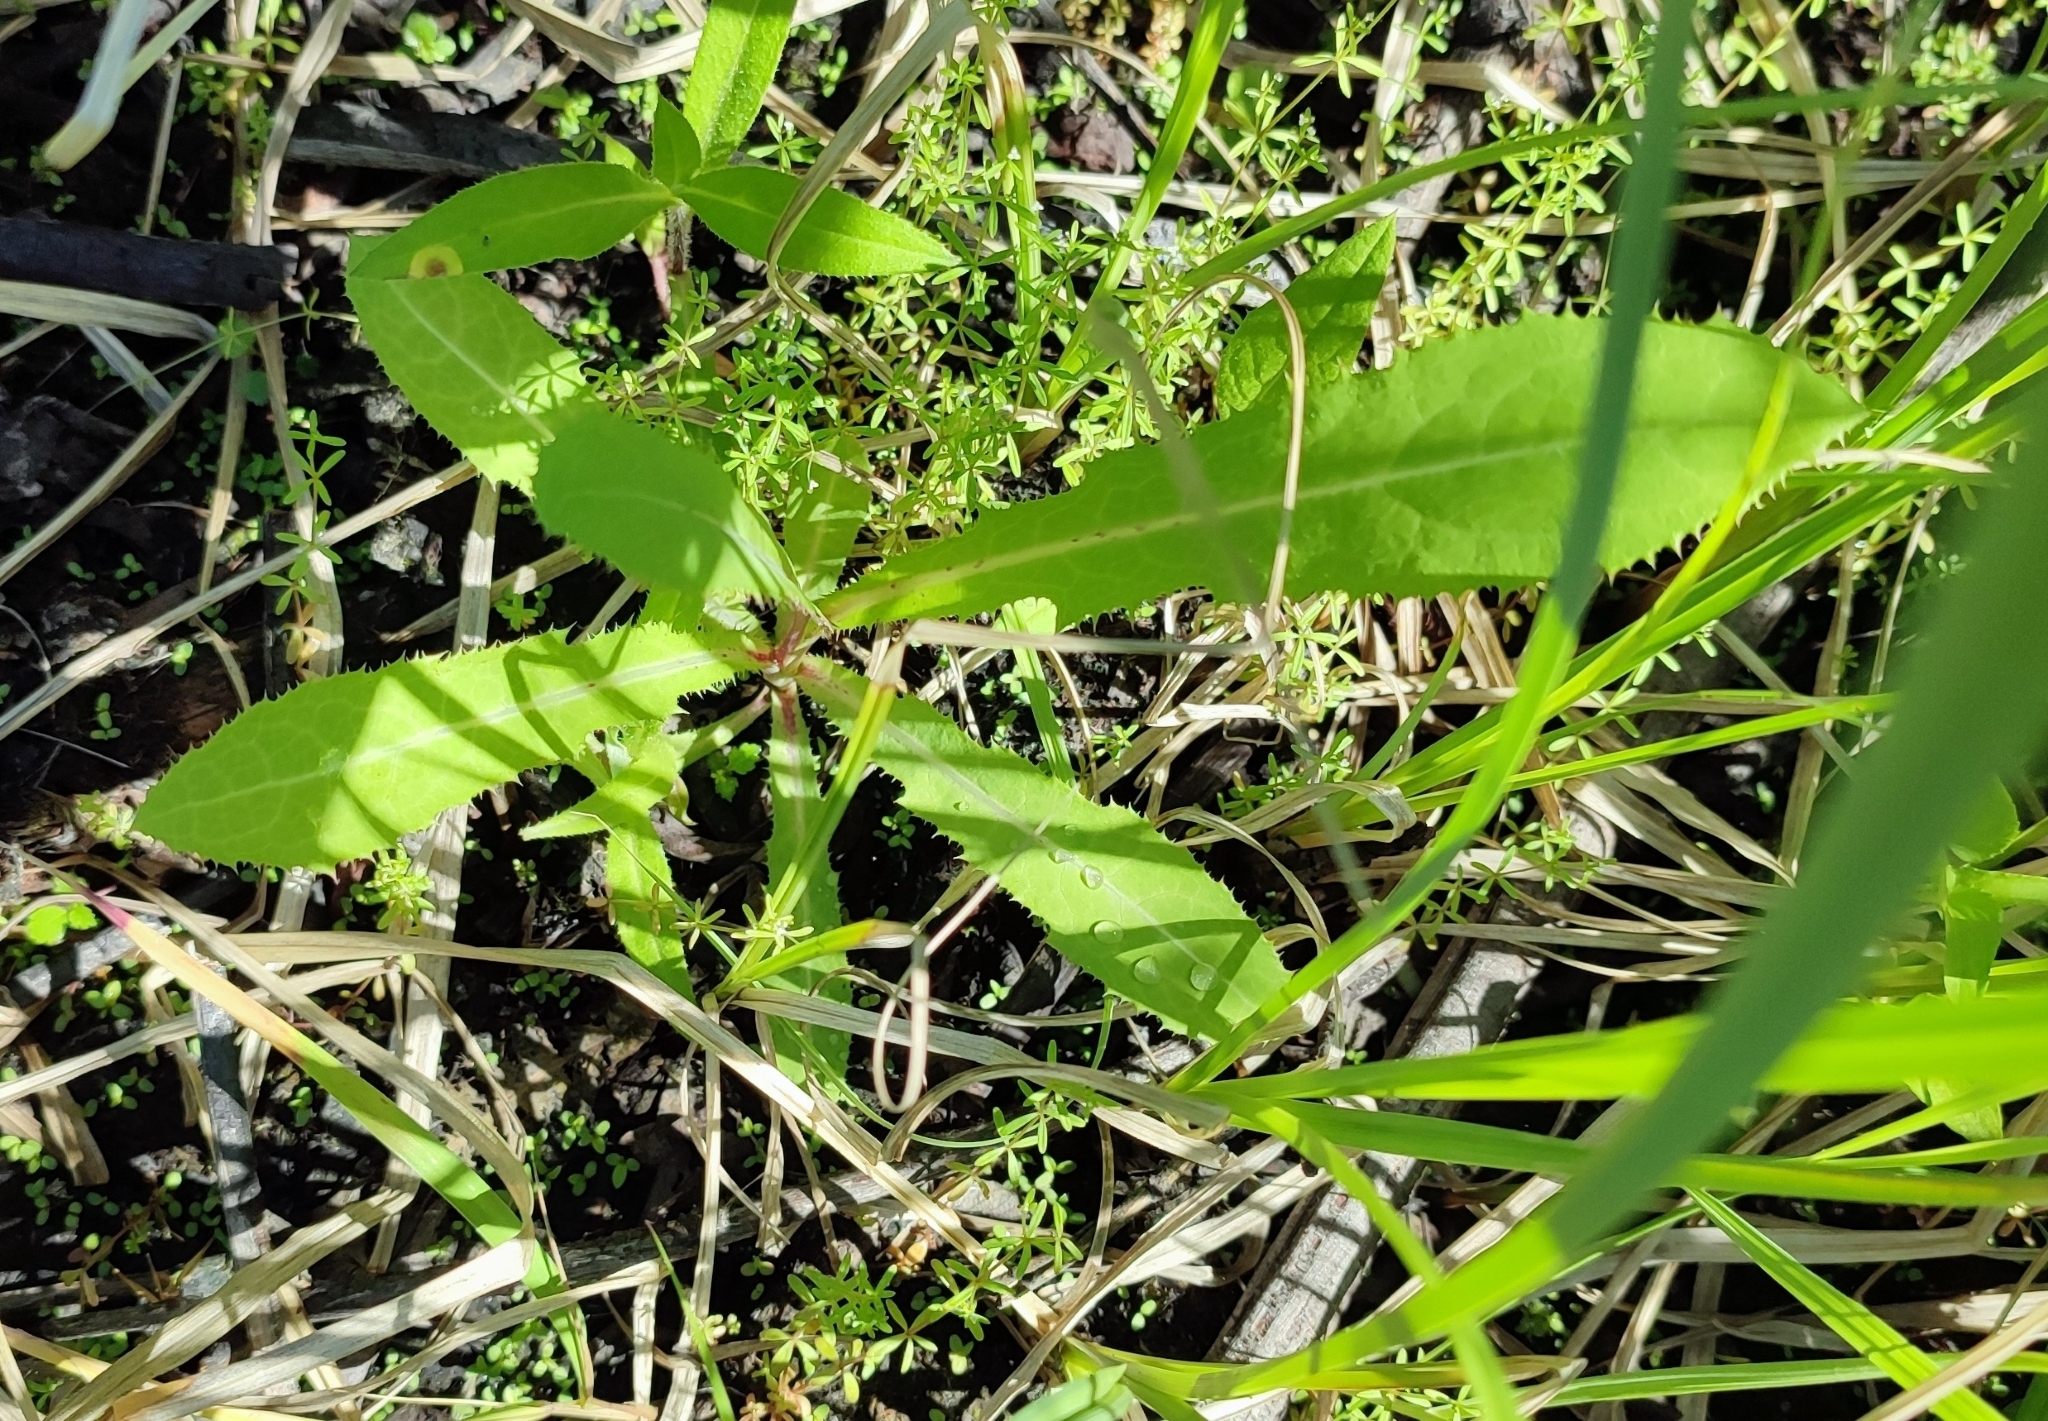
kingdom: Plantae
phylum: Tracheophyta
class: Magnoliopsida
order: Asterales
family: Asteraceae
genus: Sonchus
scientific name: Sonchus arvensis
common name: Perennial sow-thistle
